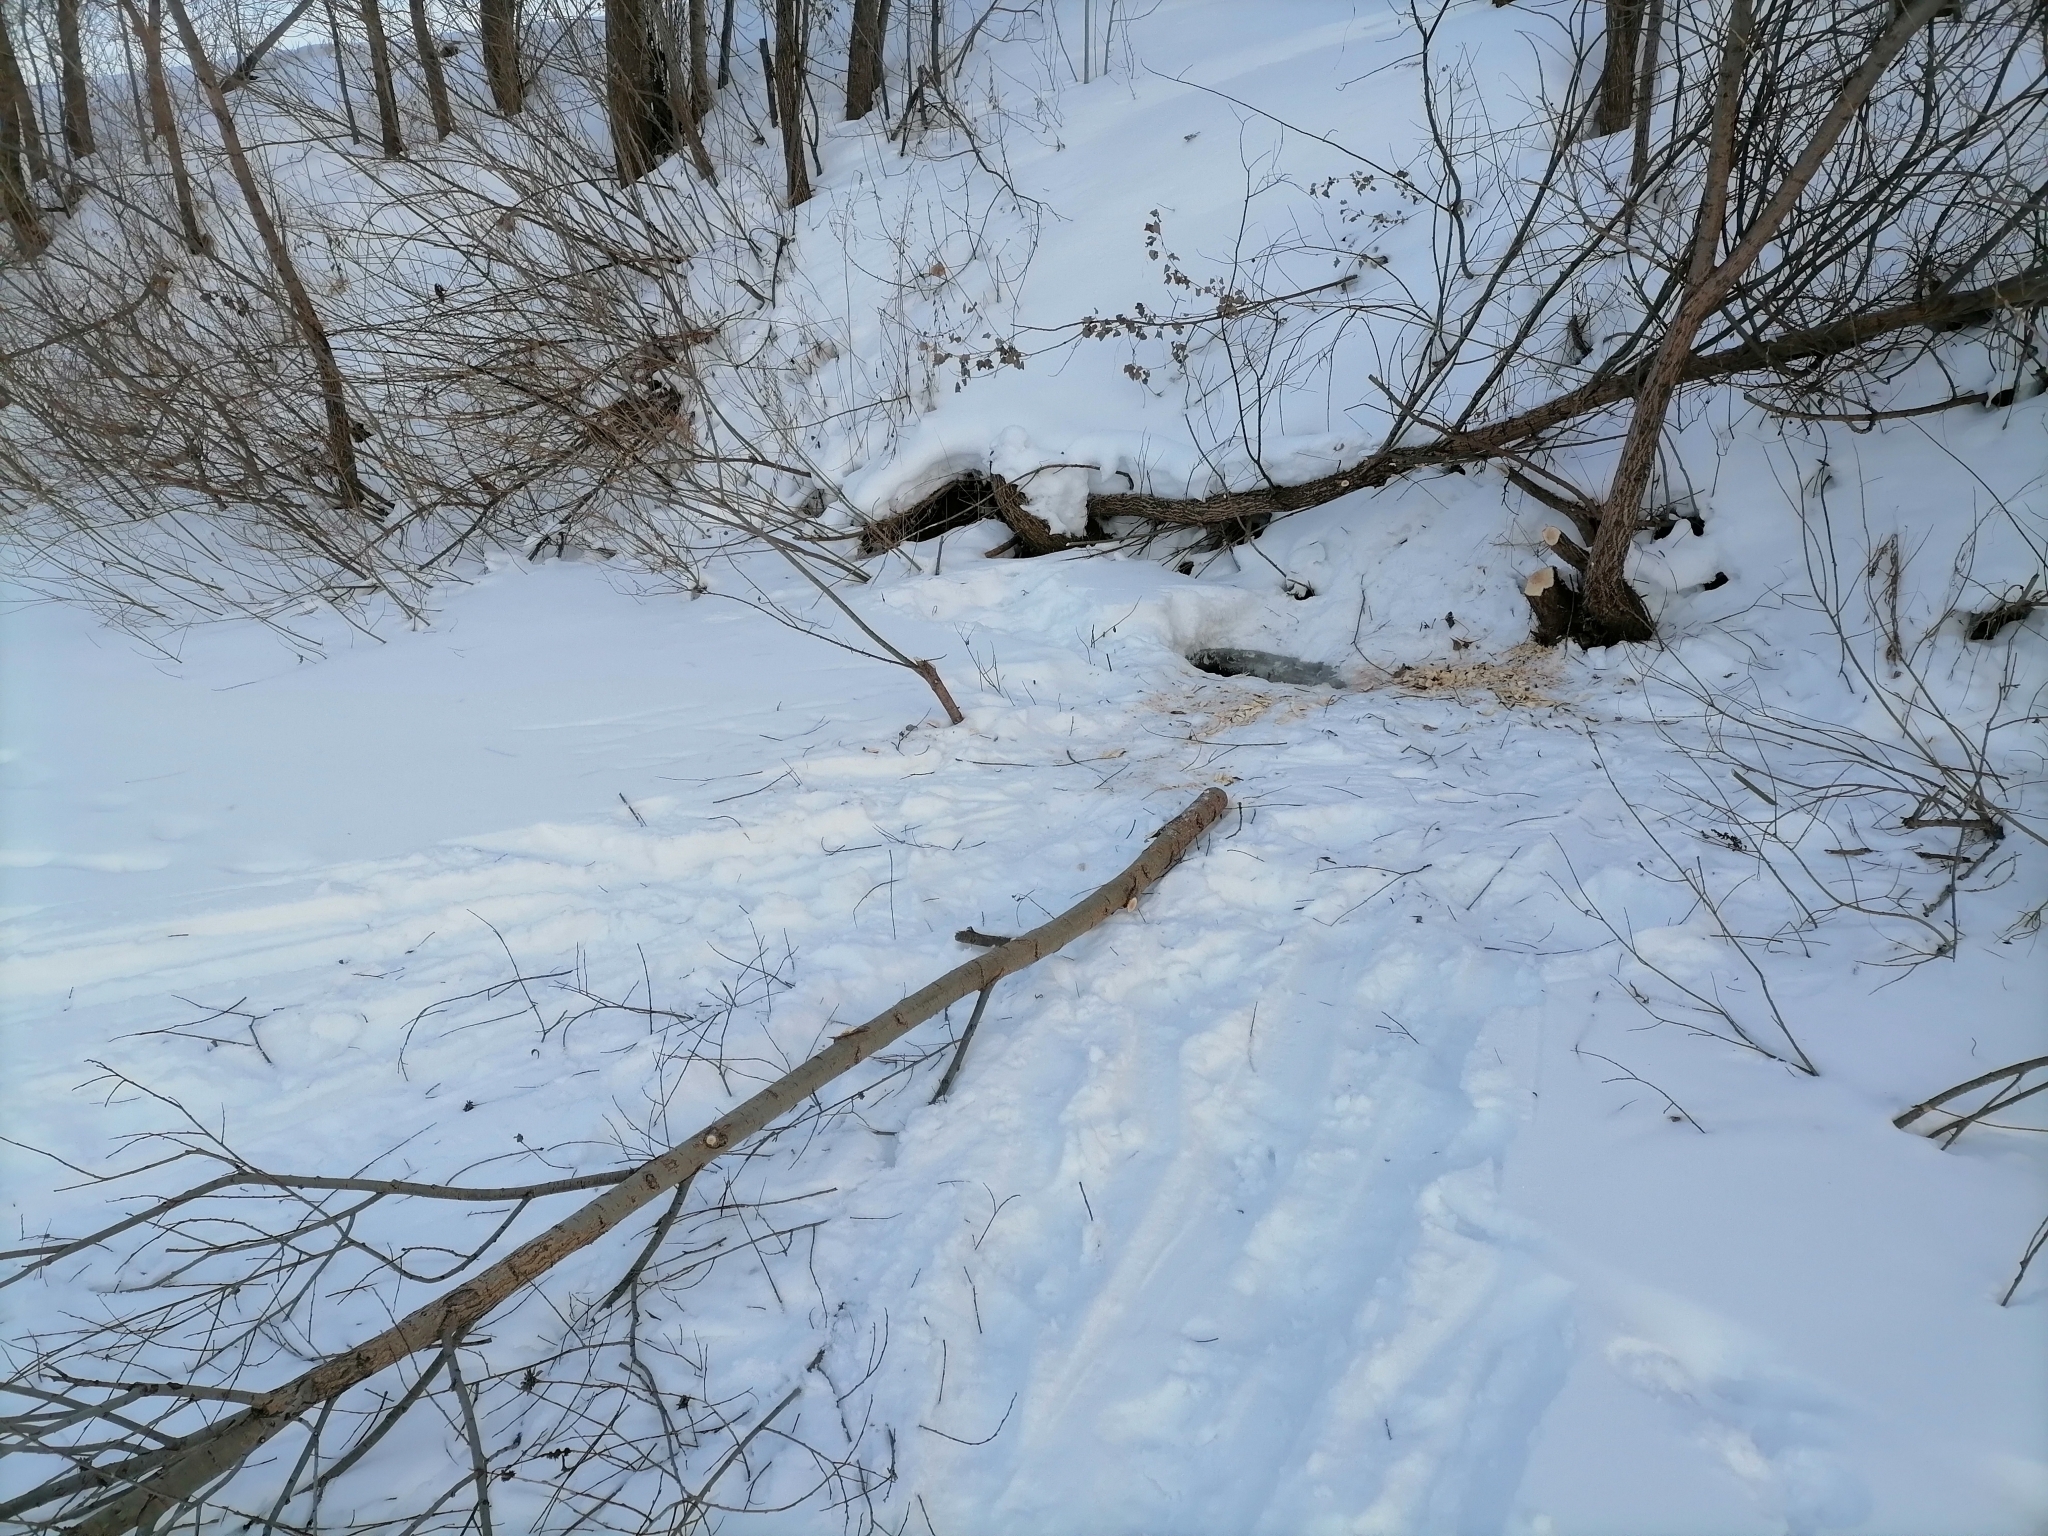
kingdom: Animalia
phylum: Chordata
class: Mammalia
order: Rodentia
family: Castoridae
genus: Castor
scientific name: Castor fiber
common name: Eurasian beaver
